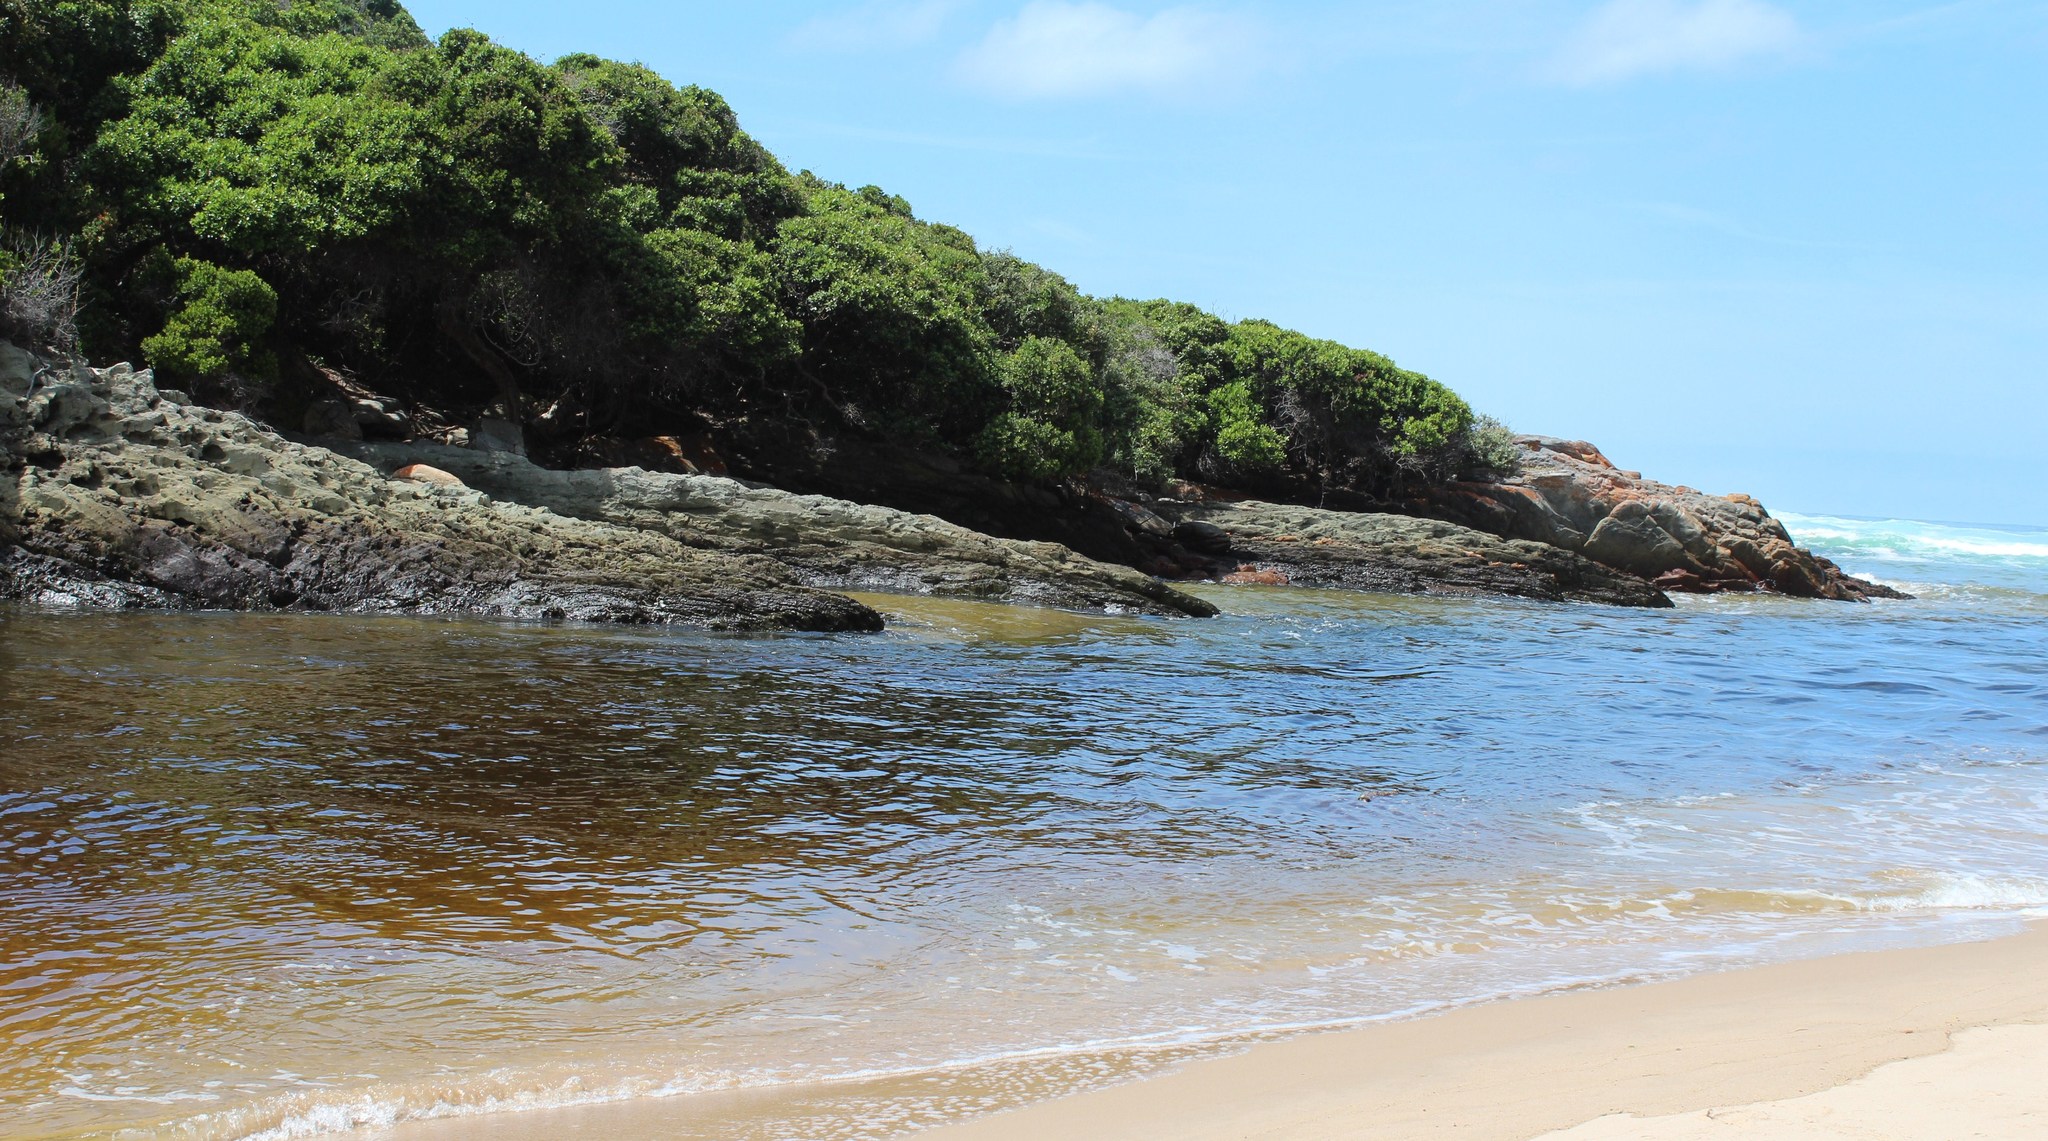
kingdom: Plantae
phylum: Tracheophyta
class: Magnoliopsida
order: Ericales
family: Sapotaceae
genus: Sideroxylon
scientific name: Sideroxylon inerme
